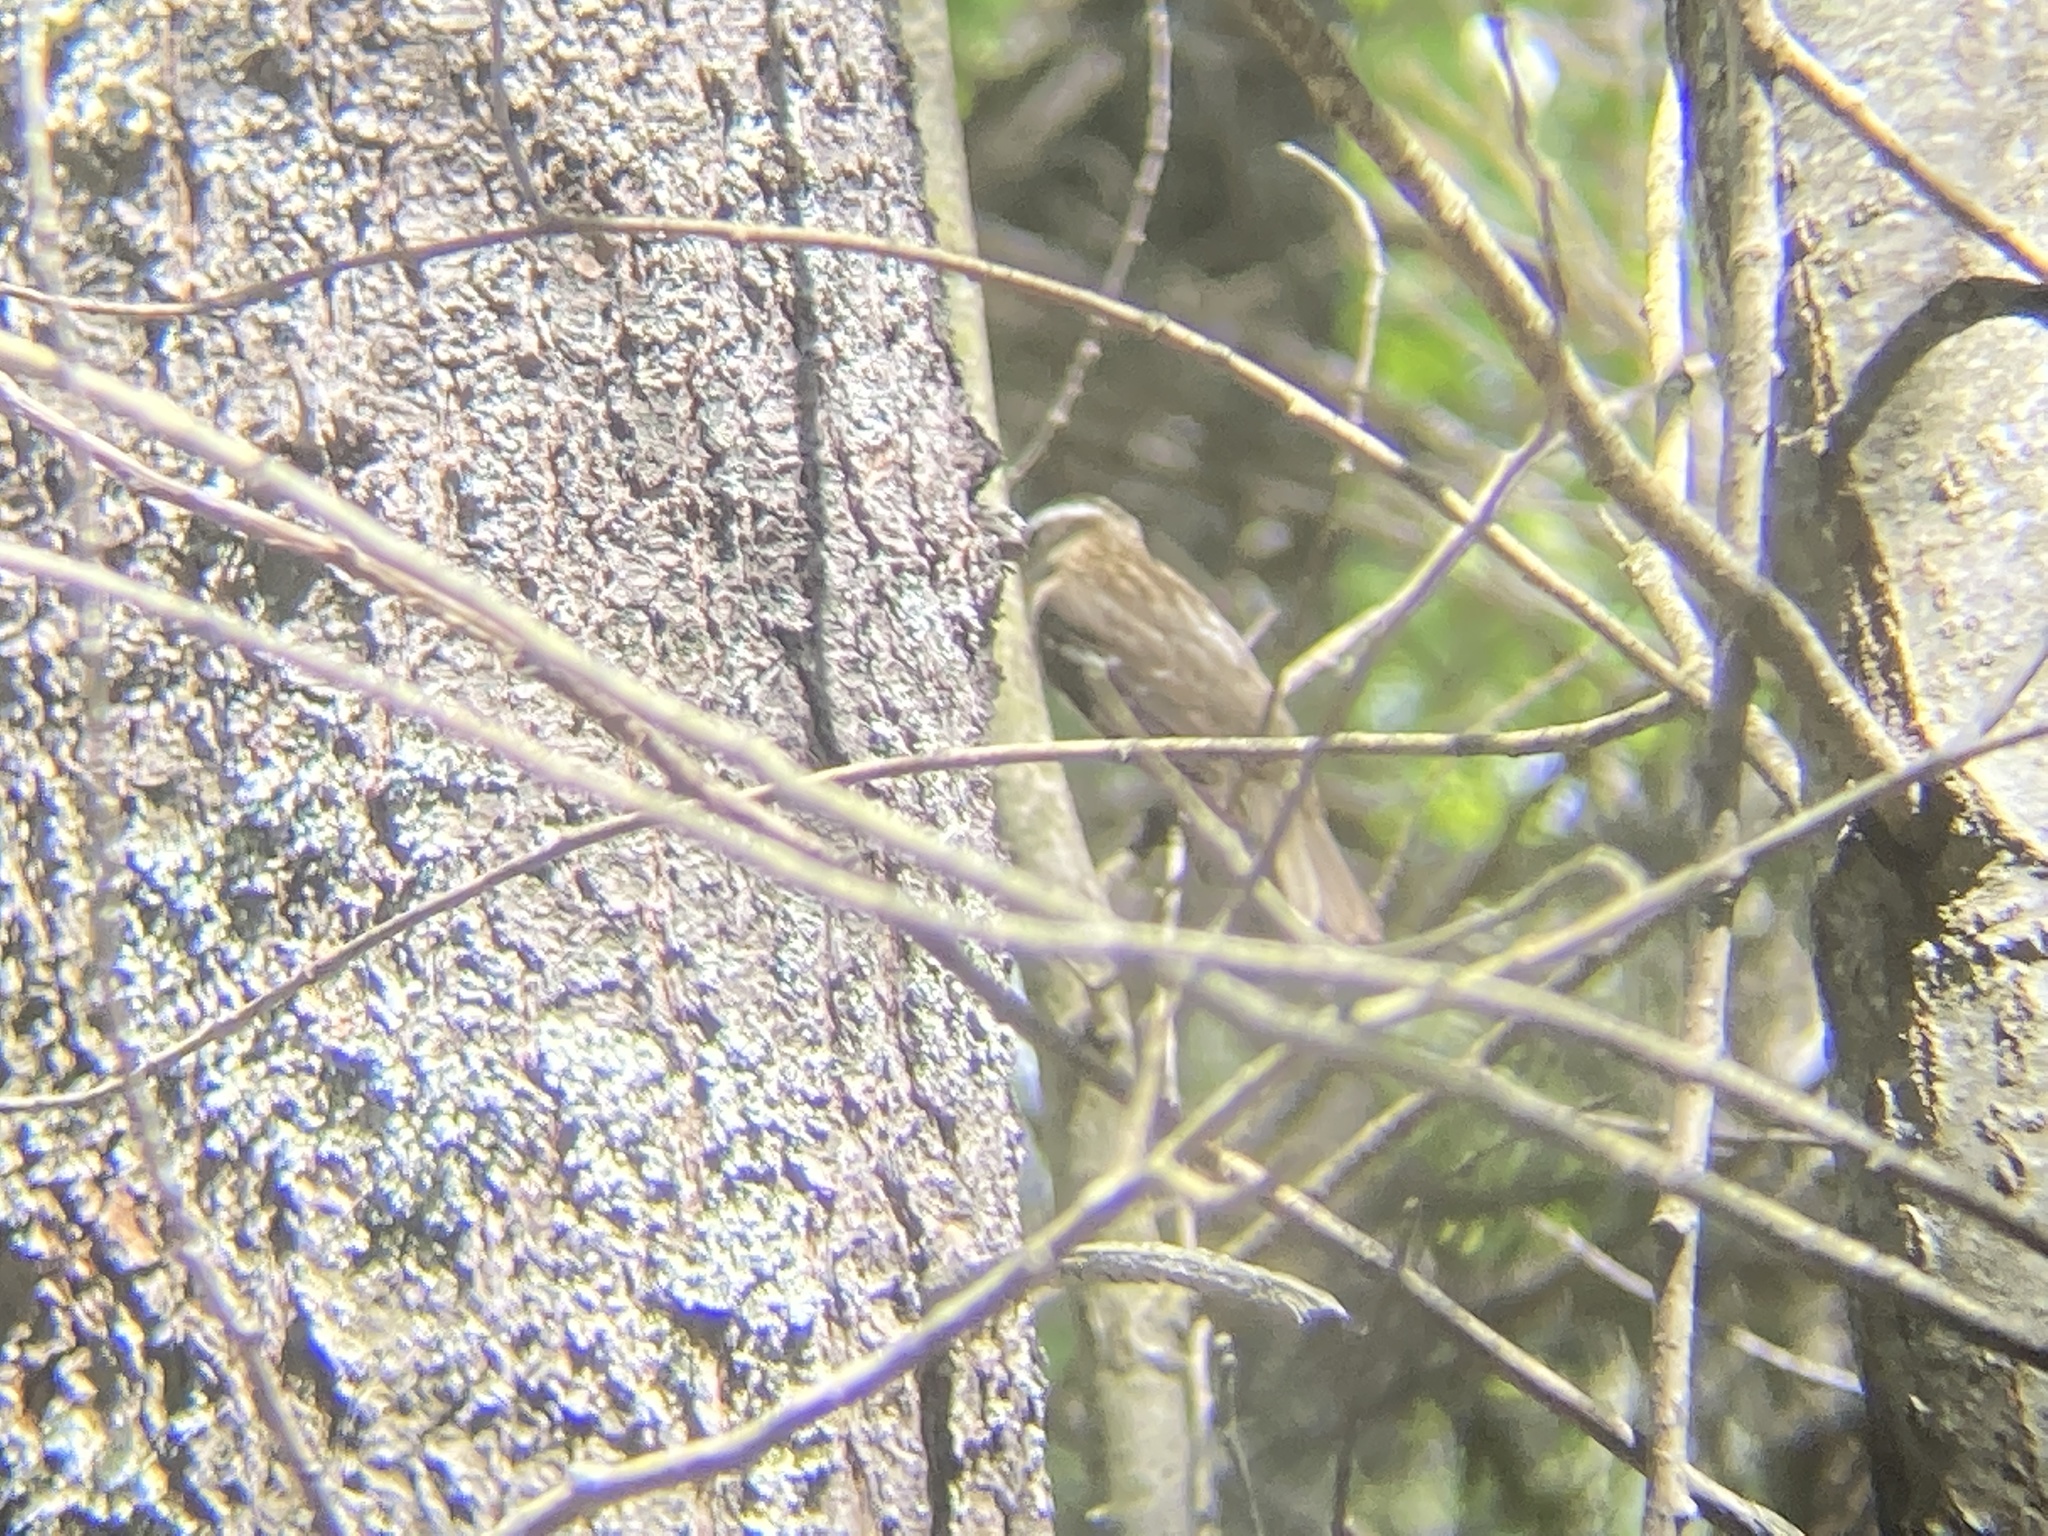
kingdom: Animalia
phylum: Chordata
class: Aves
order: Passeriformes
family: Cardinalidae
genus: Pheucticus
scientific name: Pheucticus ludovicianus
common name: Rose-breasted grosbeak
